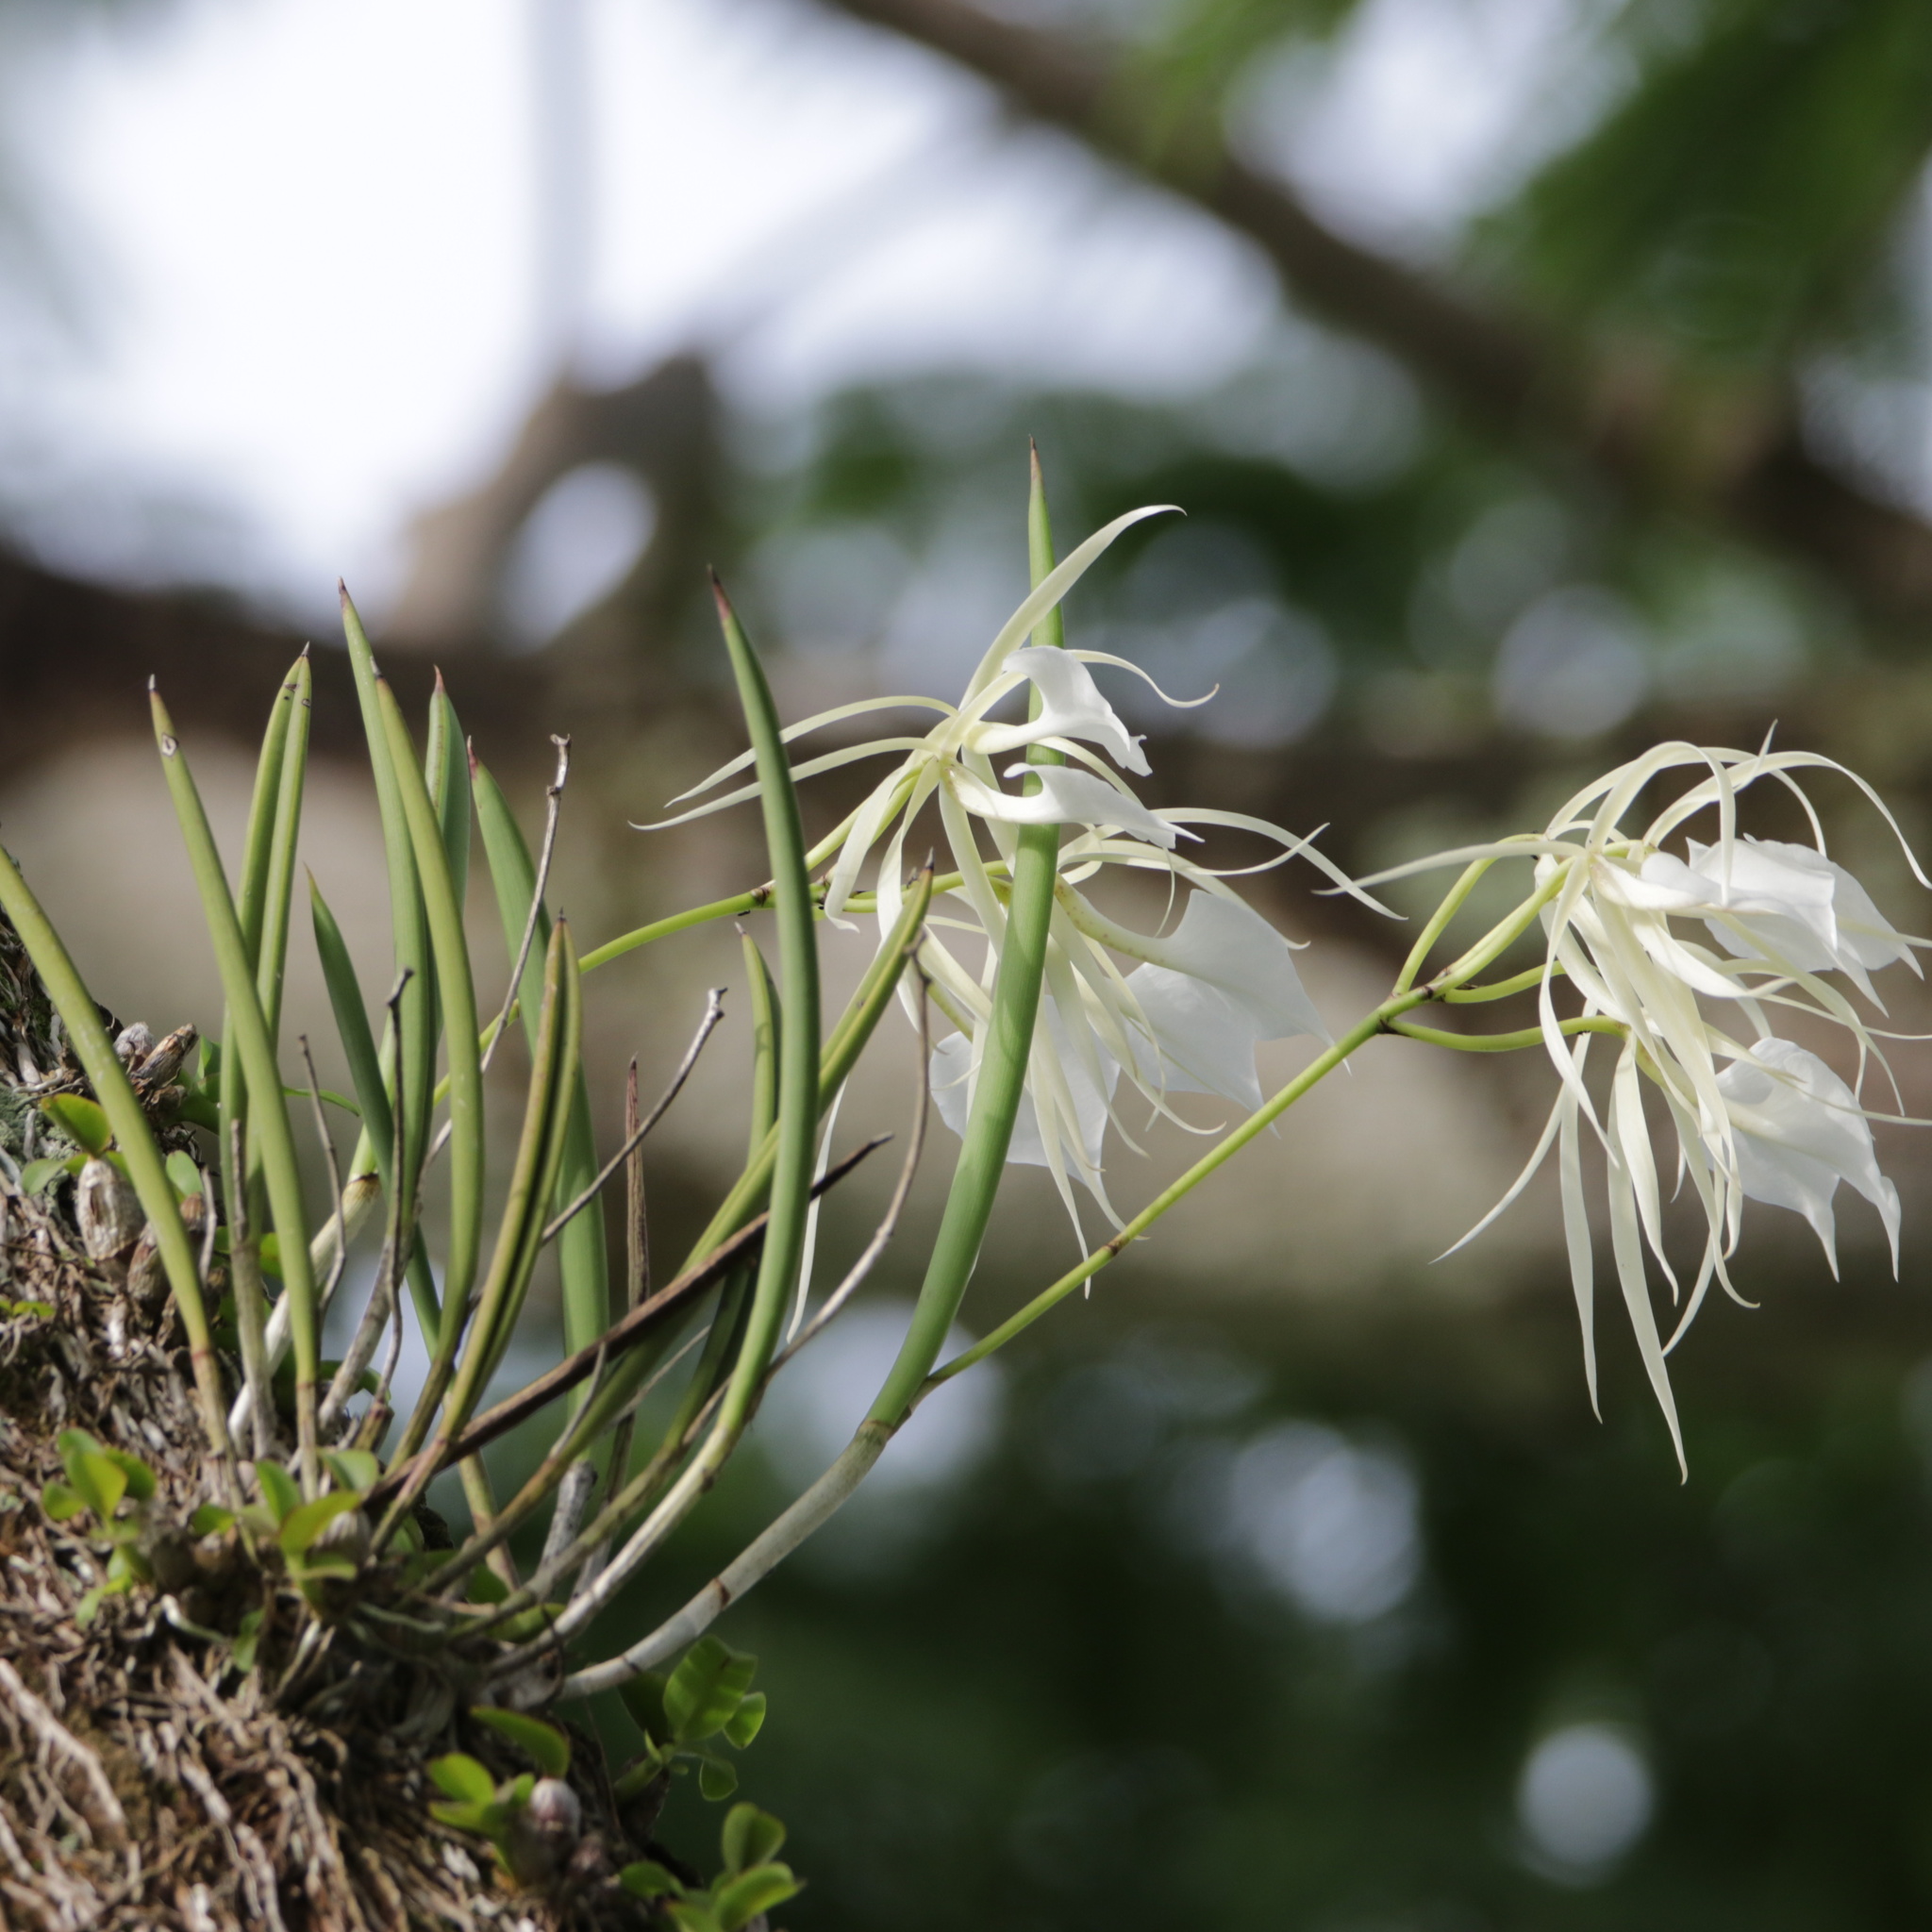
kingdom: Plantae
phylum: Tracheophyta
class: Liliopsida
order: Asparagales
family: Orchidaceae
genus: Brassavola
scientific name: Brassavola nodosa
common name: Lady of the night
